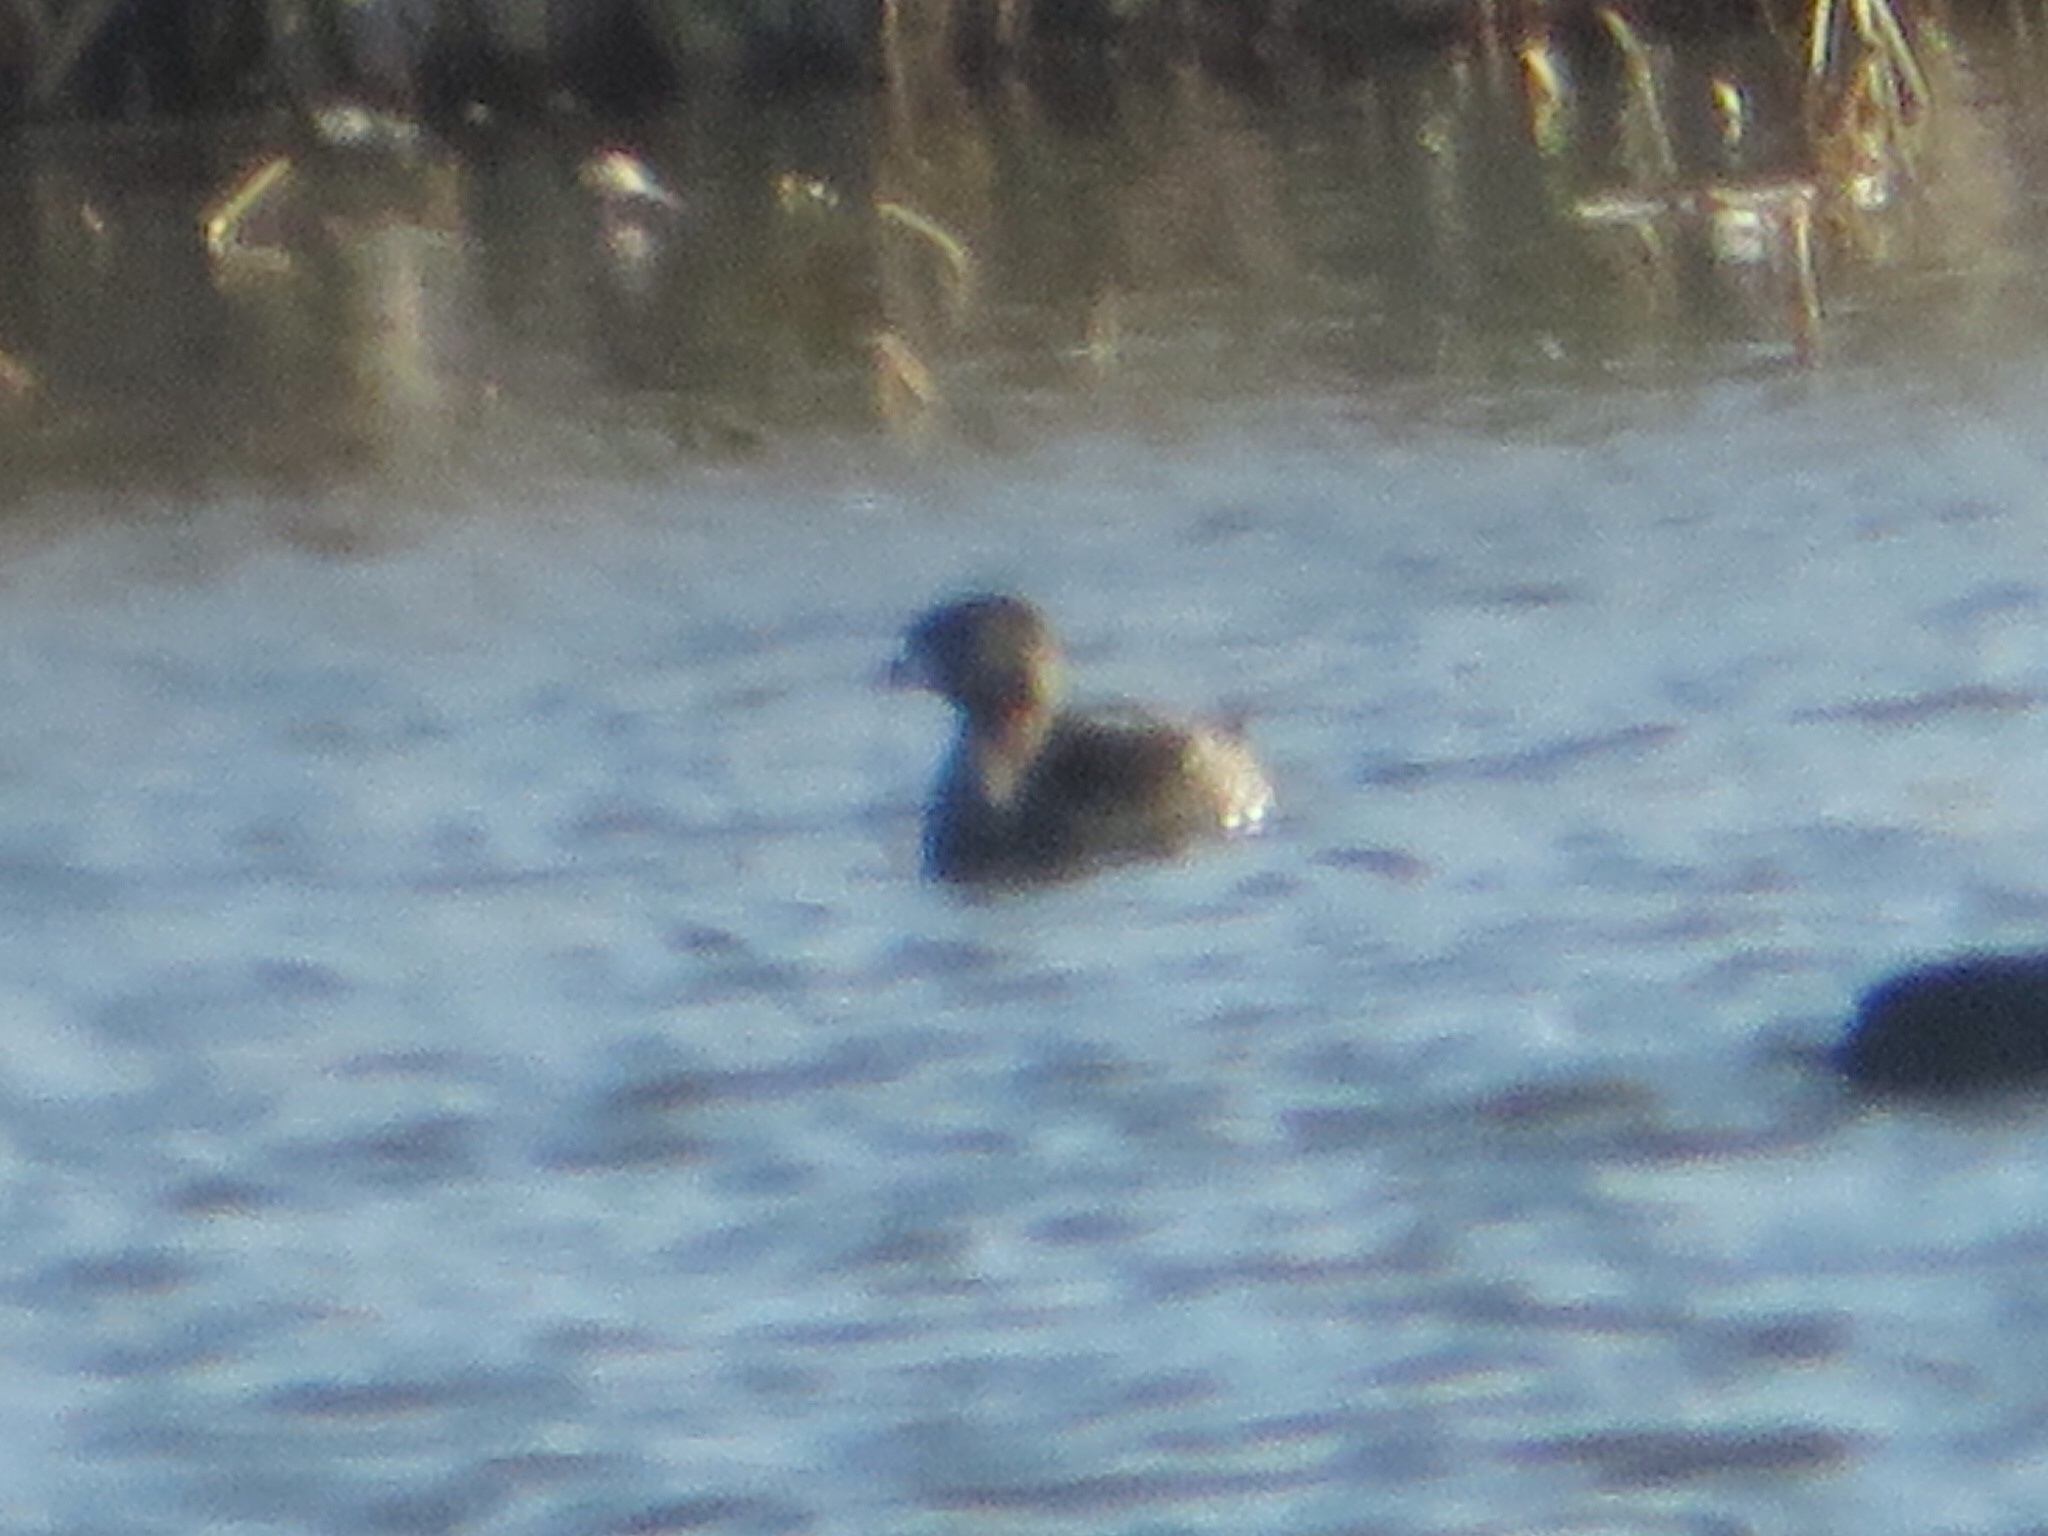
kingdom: Animalia
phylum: Chordata
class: Aves
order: Podicipediformes
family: Podicipedidae
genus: Podilymbus
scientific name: Podilymbus podiceps
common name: Pied-billed grebe
